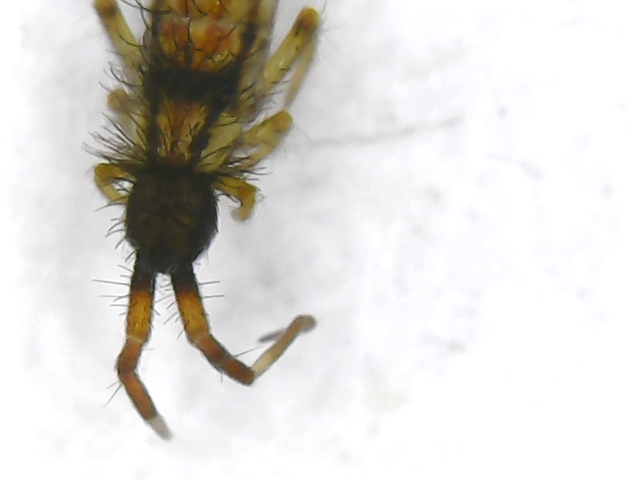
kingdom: Animalia
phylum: Arthropoda
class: Collembola
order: Entomobryomorpha
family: Entomobryidae
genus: Entomobrya
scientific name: Entomobrya nivalis
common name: Cosmopolitan springtail
